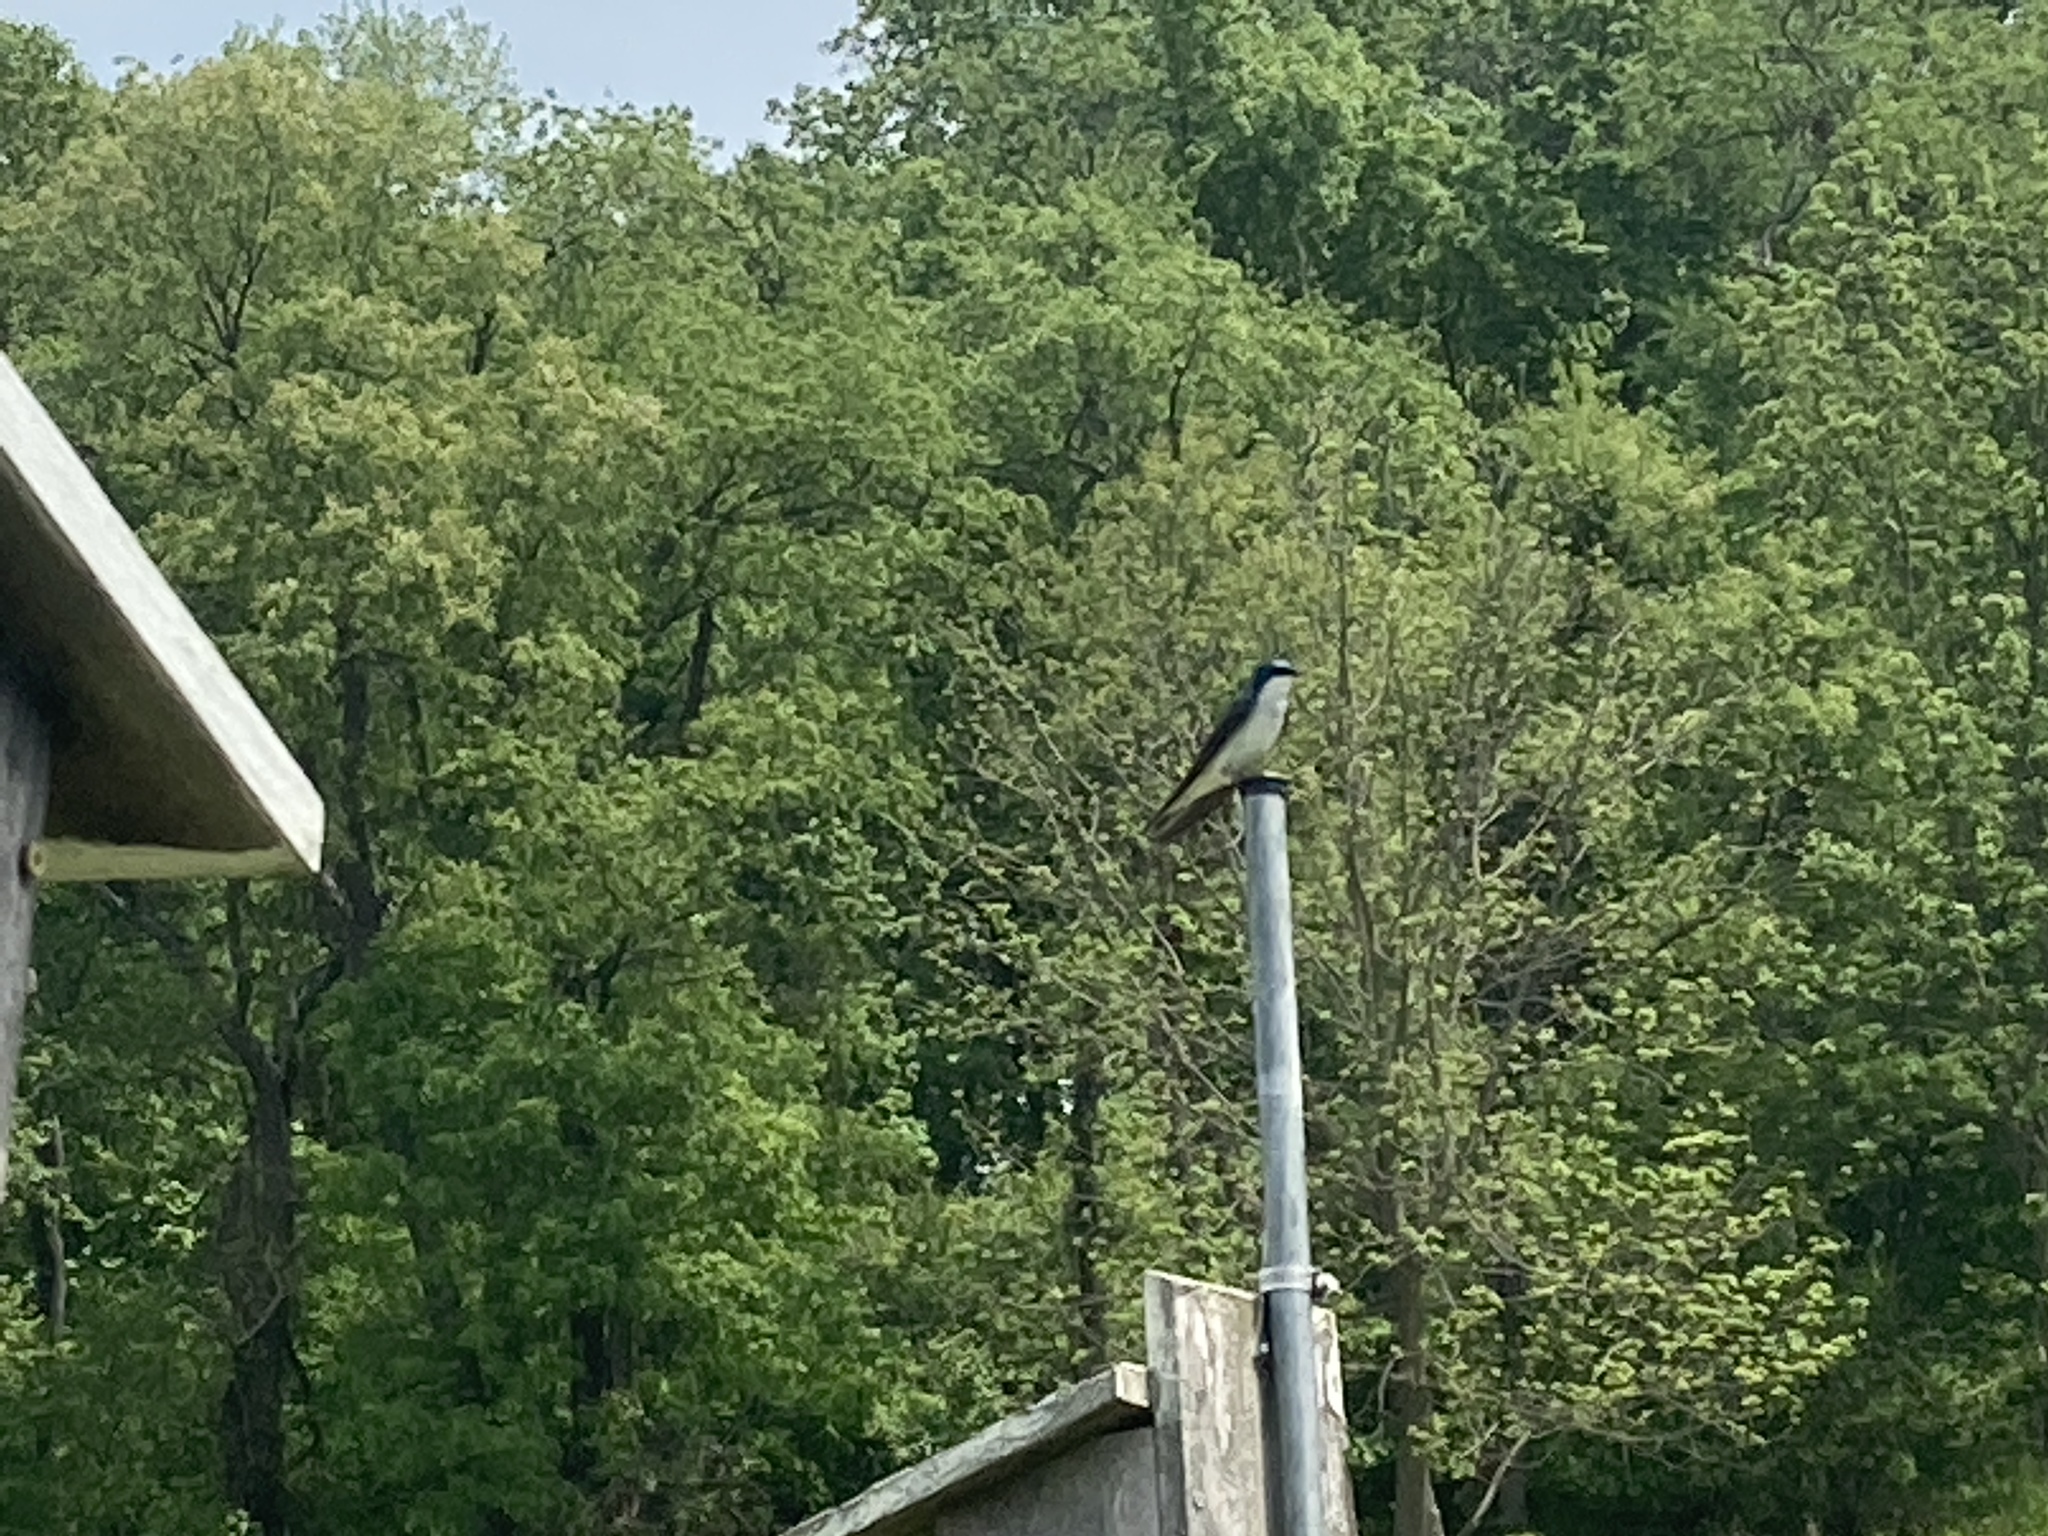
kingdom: Animalia
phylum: Chordata
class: Aves
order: Passeriformes
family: Hirundinidae
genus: Tachycineta
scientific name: Tachycineta bicolor
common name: Tree swallow
